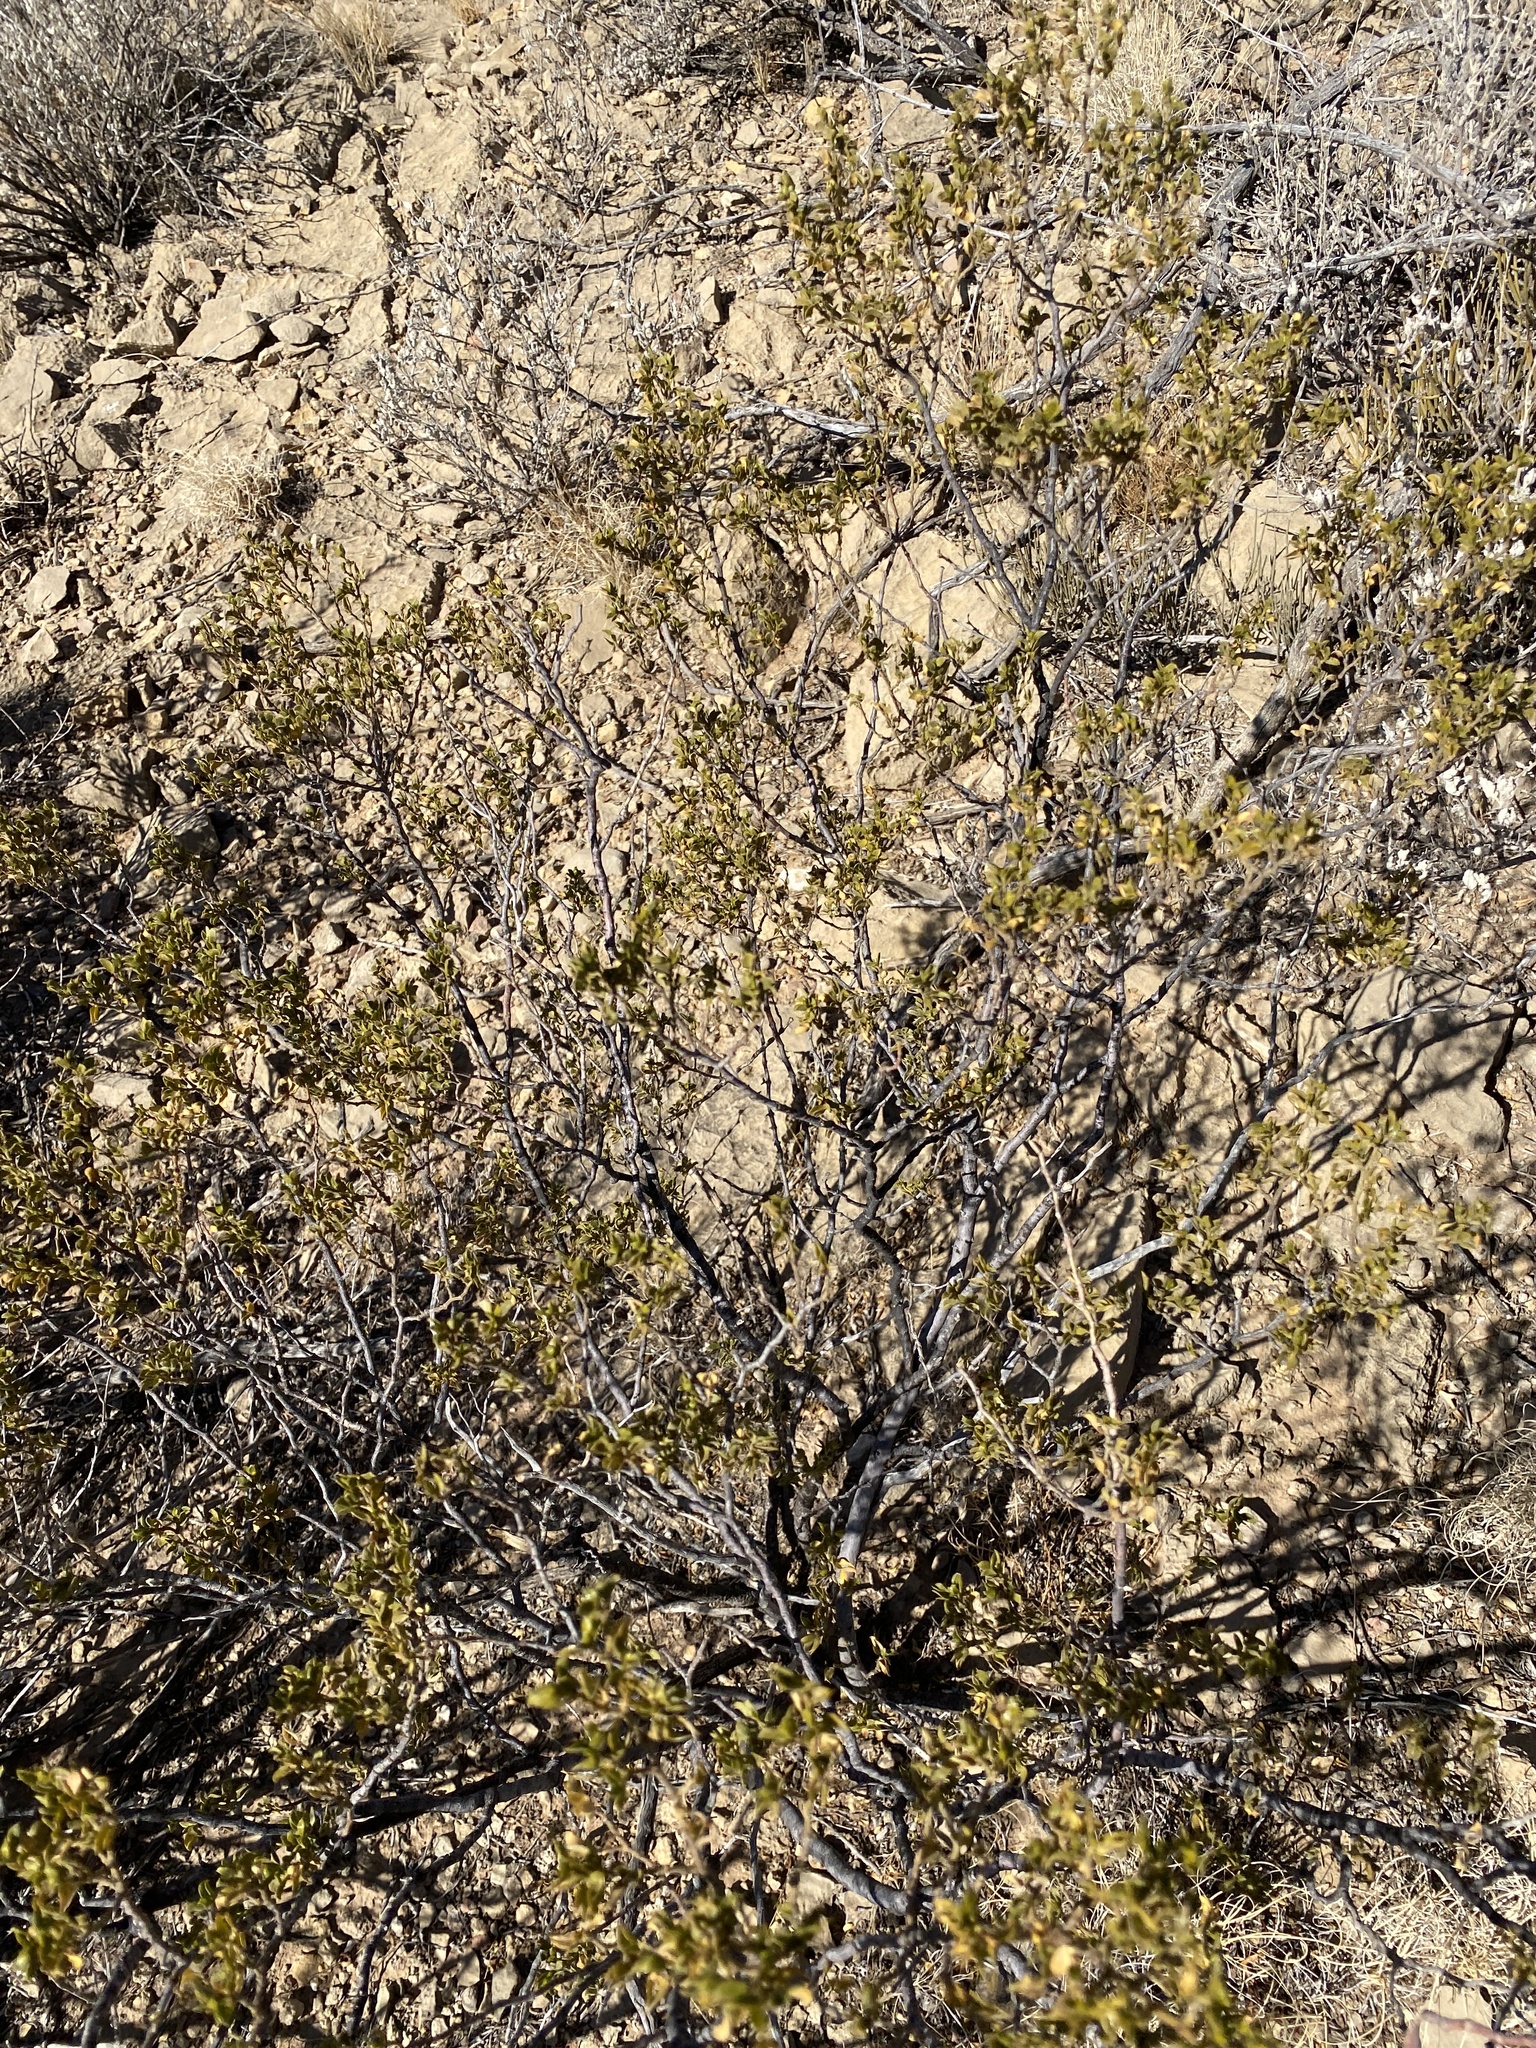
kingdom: Plantae
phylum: Tracheophyta
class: Magnoliopsida
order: Zygophyllales
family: Zygophyllaceae
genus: Larrea
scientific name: Larrea tridentata
